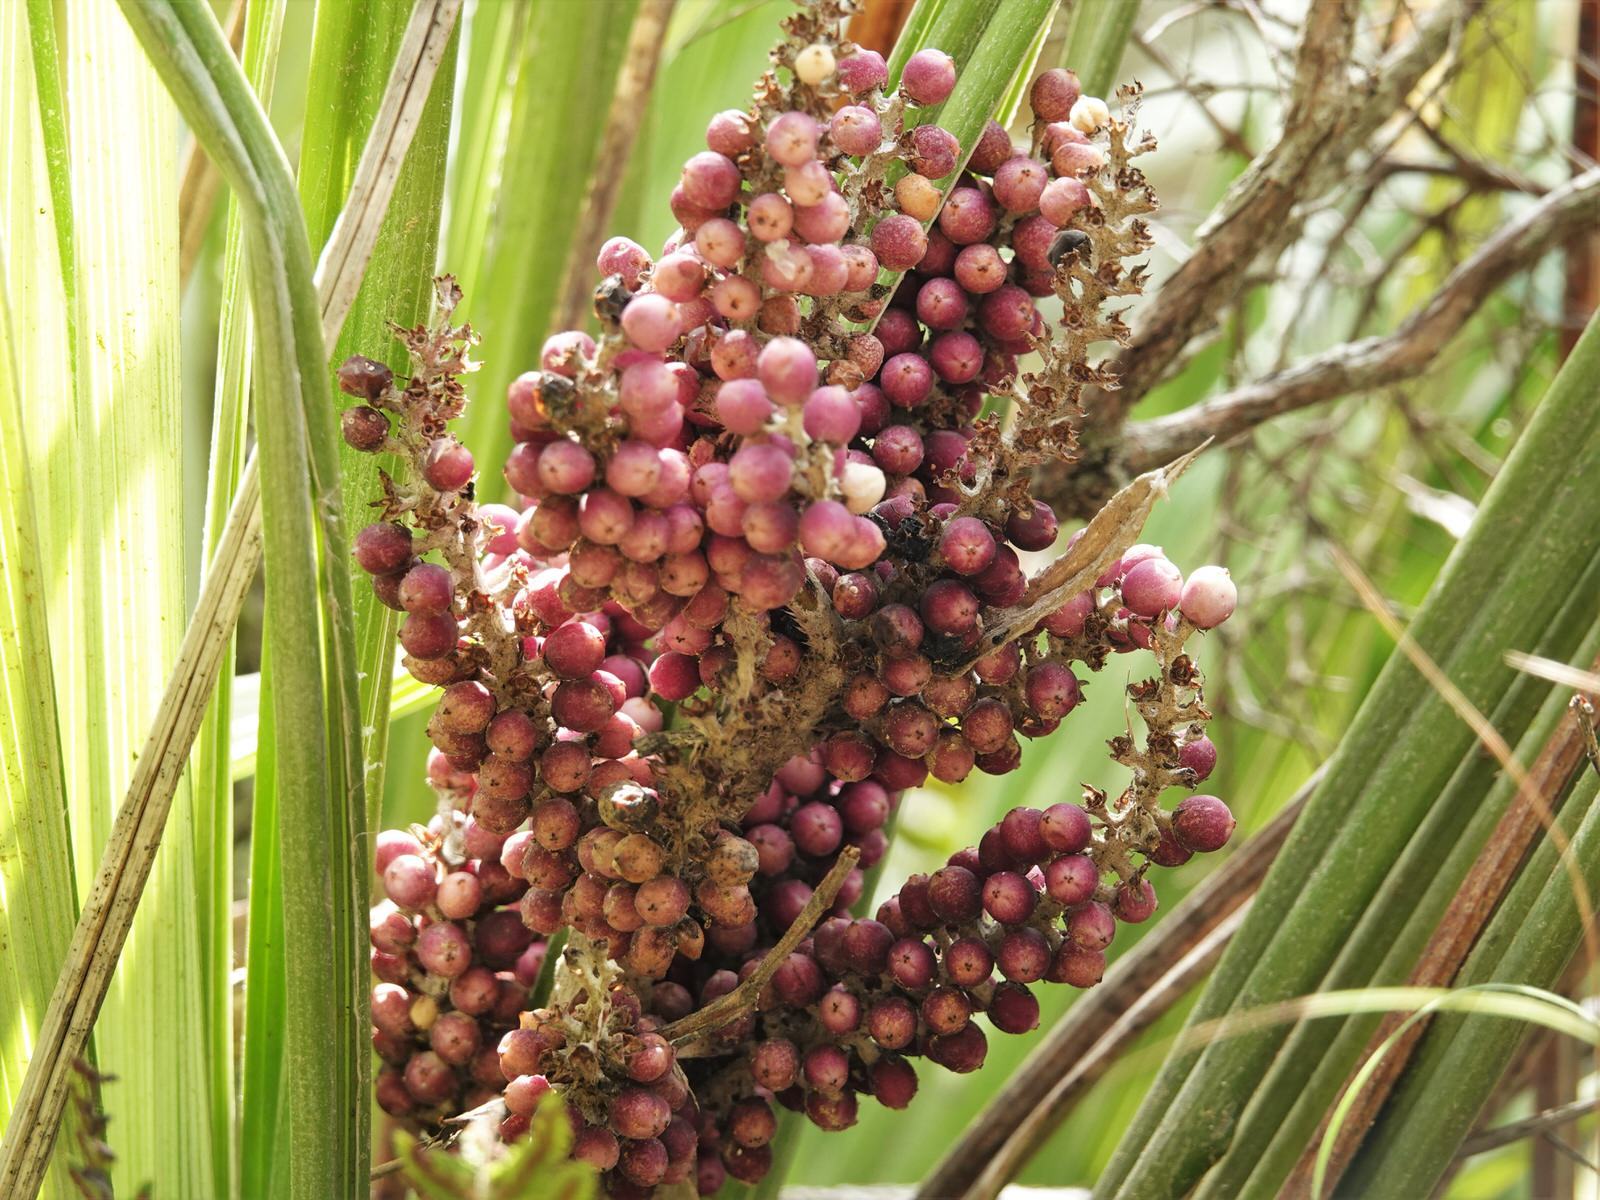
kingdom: Plantae
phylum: Tracheophyta
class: Liliopsida
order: Asparagales
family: Asteliaceae
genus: Astelia
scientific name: Astelia banksii
